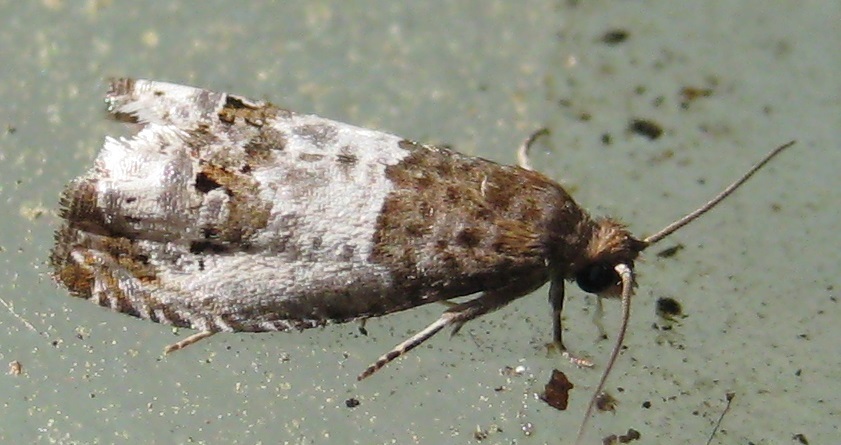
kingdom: Animalia
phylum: Arthropoda
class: Insecta
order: Lepidoptera
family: Tortricidae
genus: Notocelia
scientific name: Notocelia rosaecolana
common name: Common rose bell
